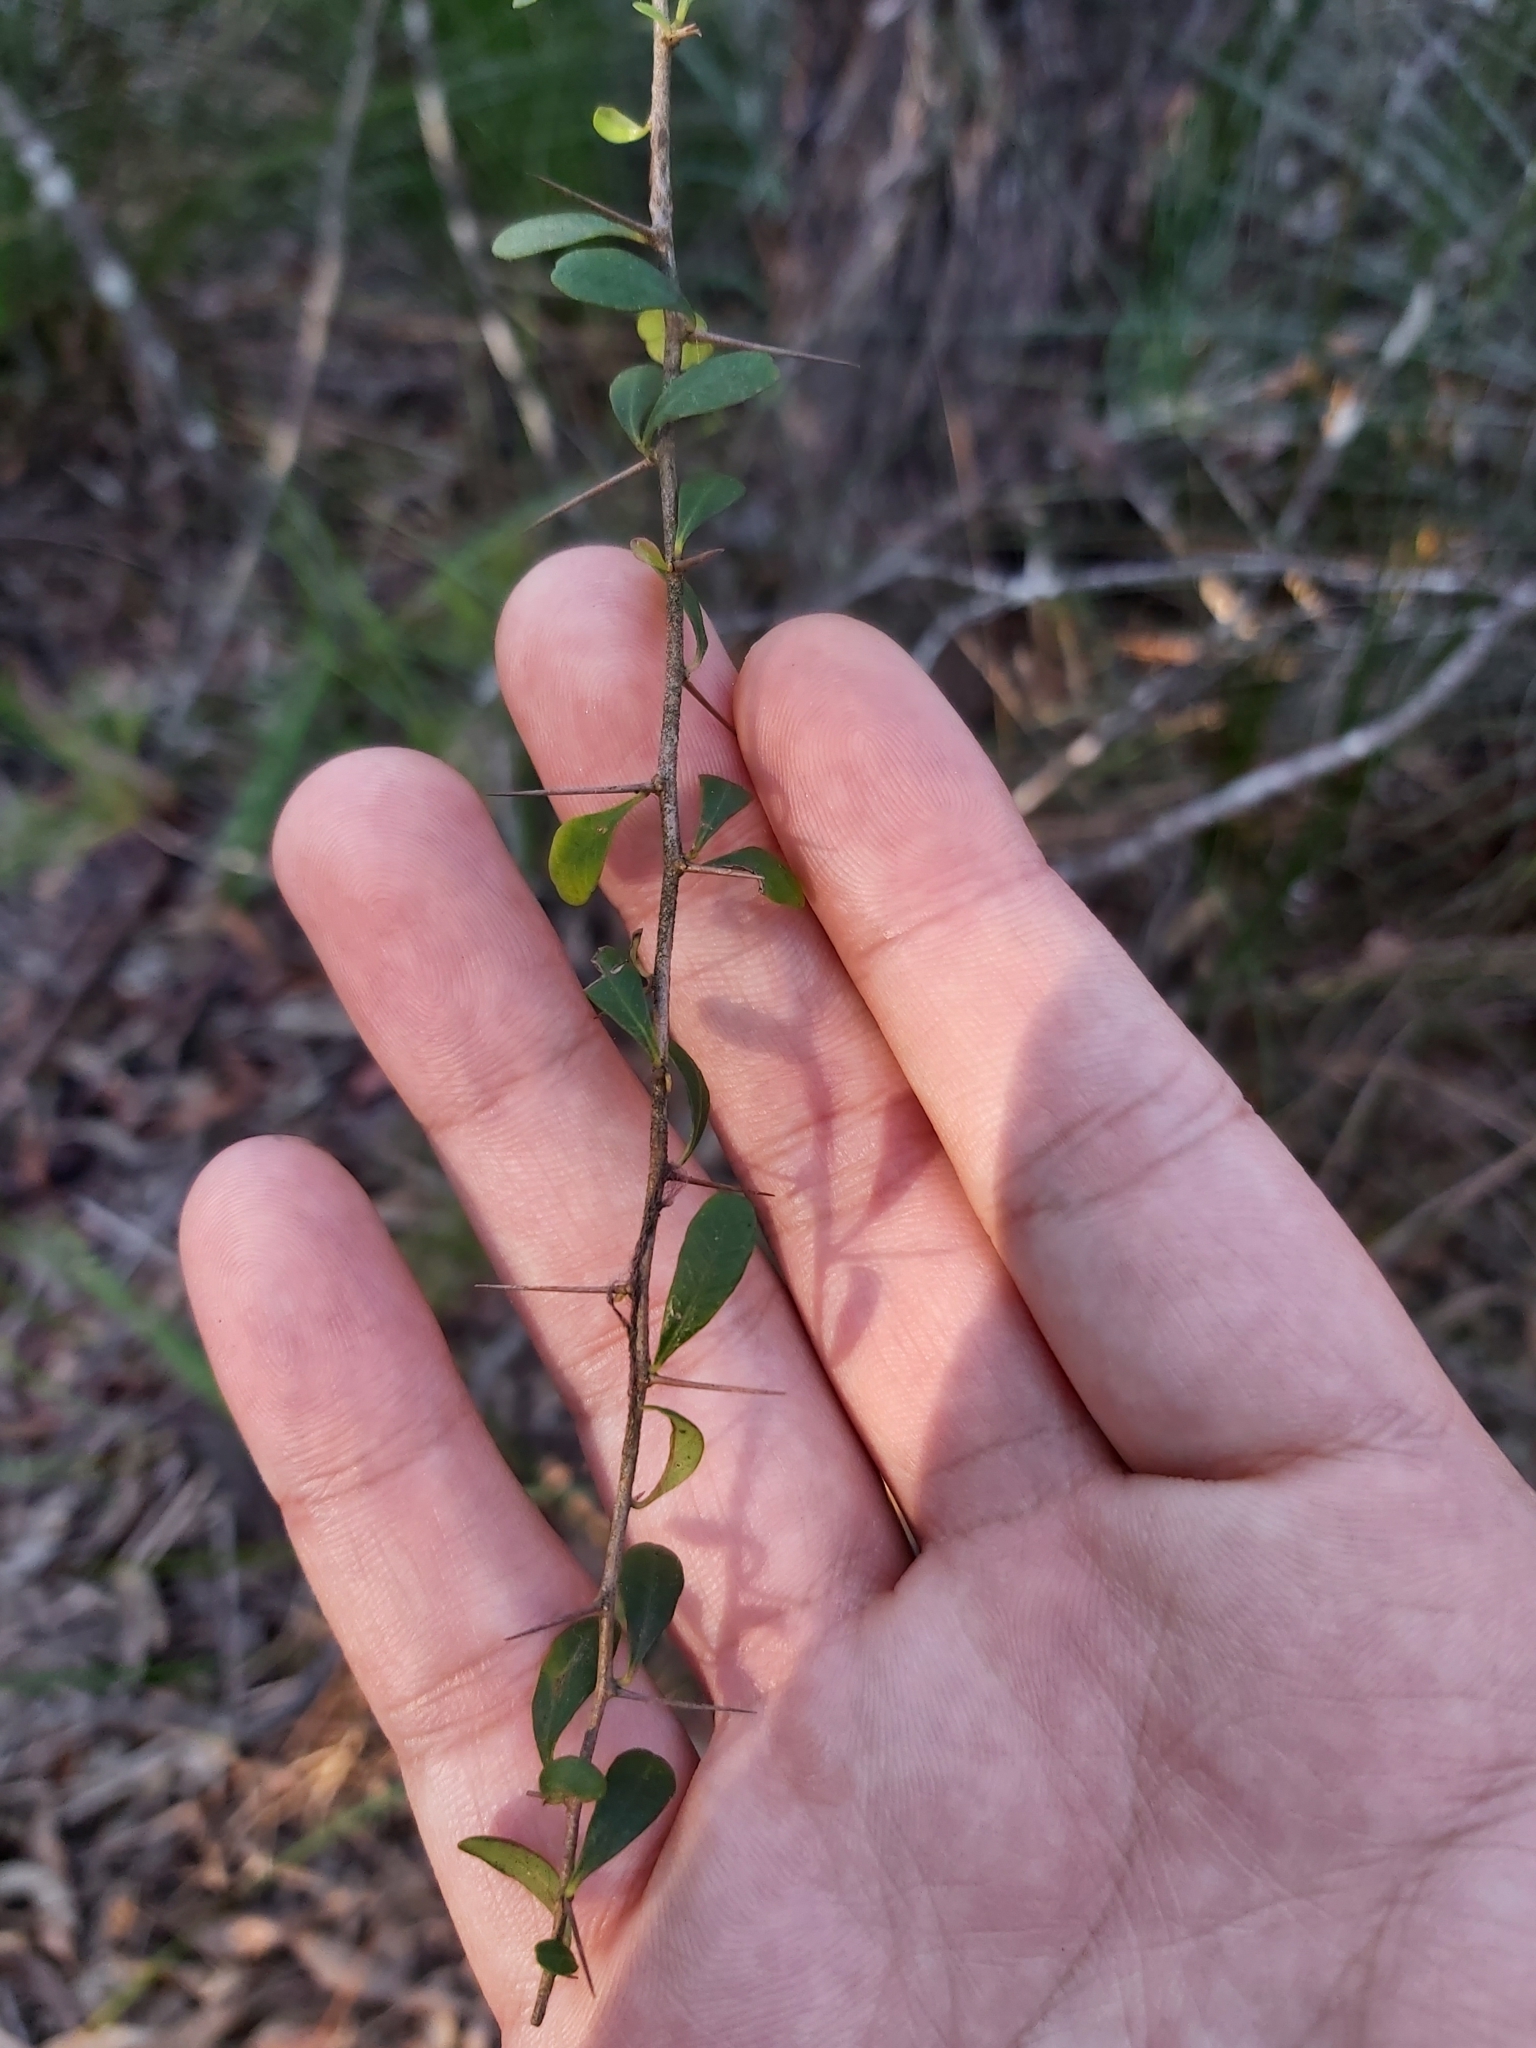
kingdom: Plantae
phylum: Tracheophyta
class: Magnoliopsida
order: Apiales
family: Pittosporaceae
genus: Bursaria
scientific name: Bursaria spinosa
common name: Australian blackthorn
